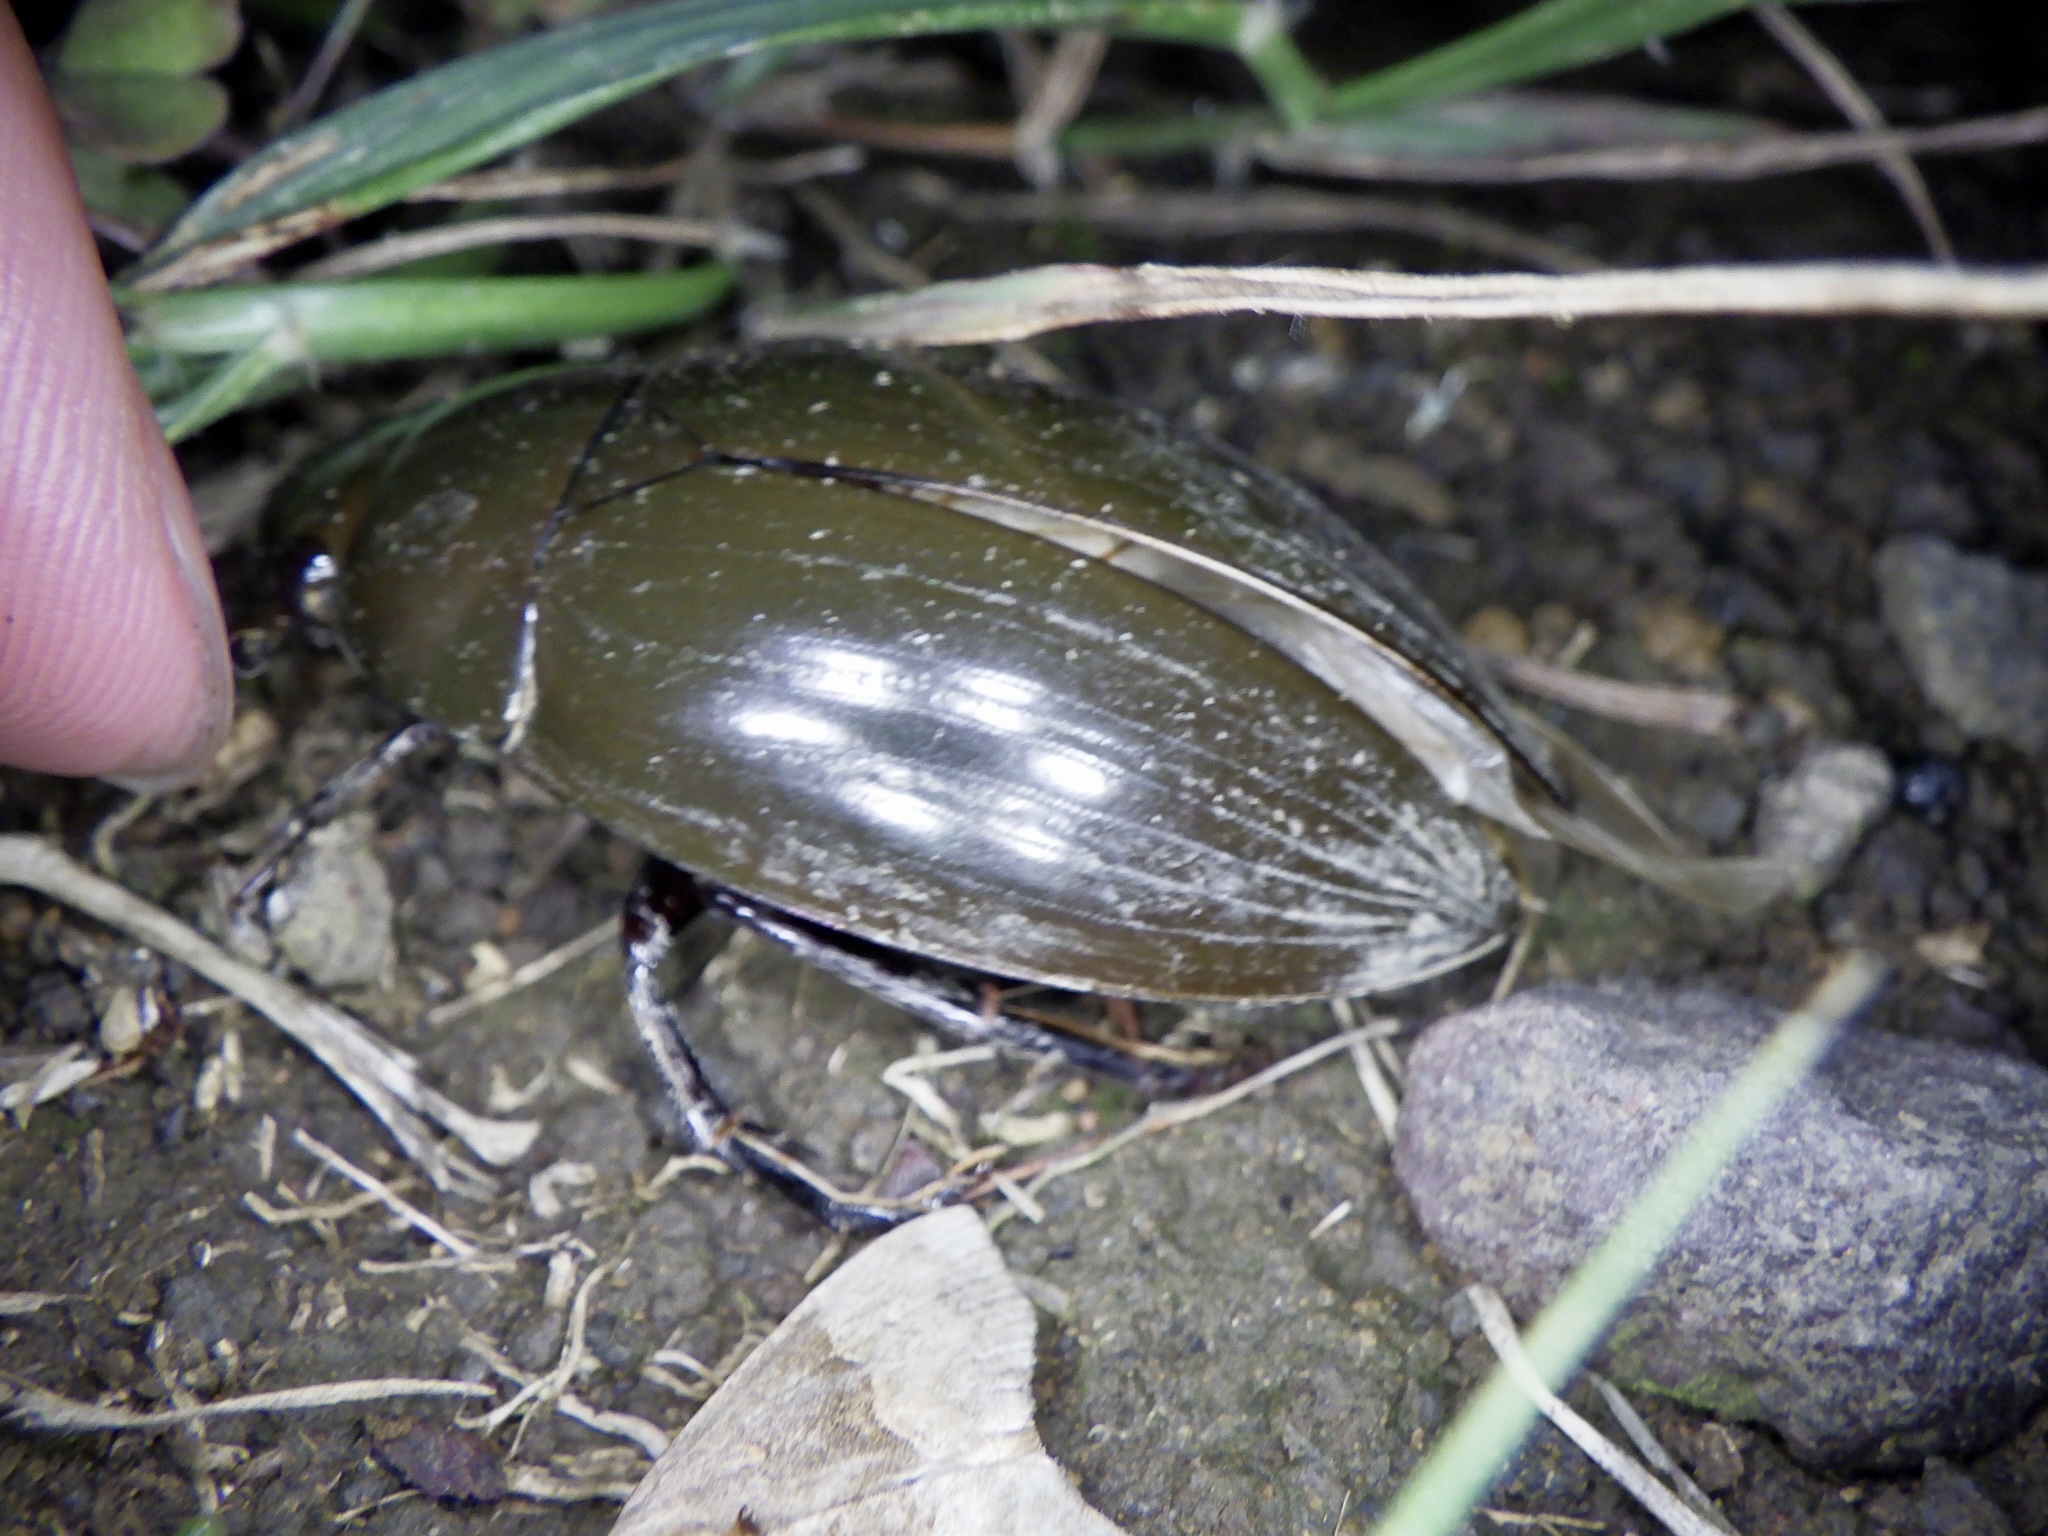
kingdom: Animalia
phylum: Arthropoda
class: Insecta
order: Coleoptera
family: Hydrophilidae
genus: Hydrophilus
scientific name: Hydrophilus acuminatus
